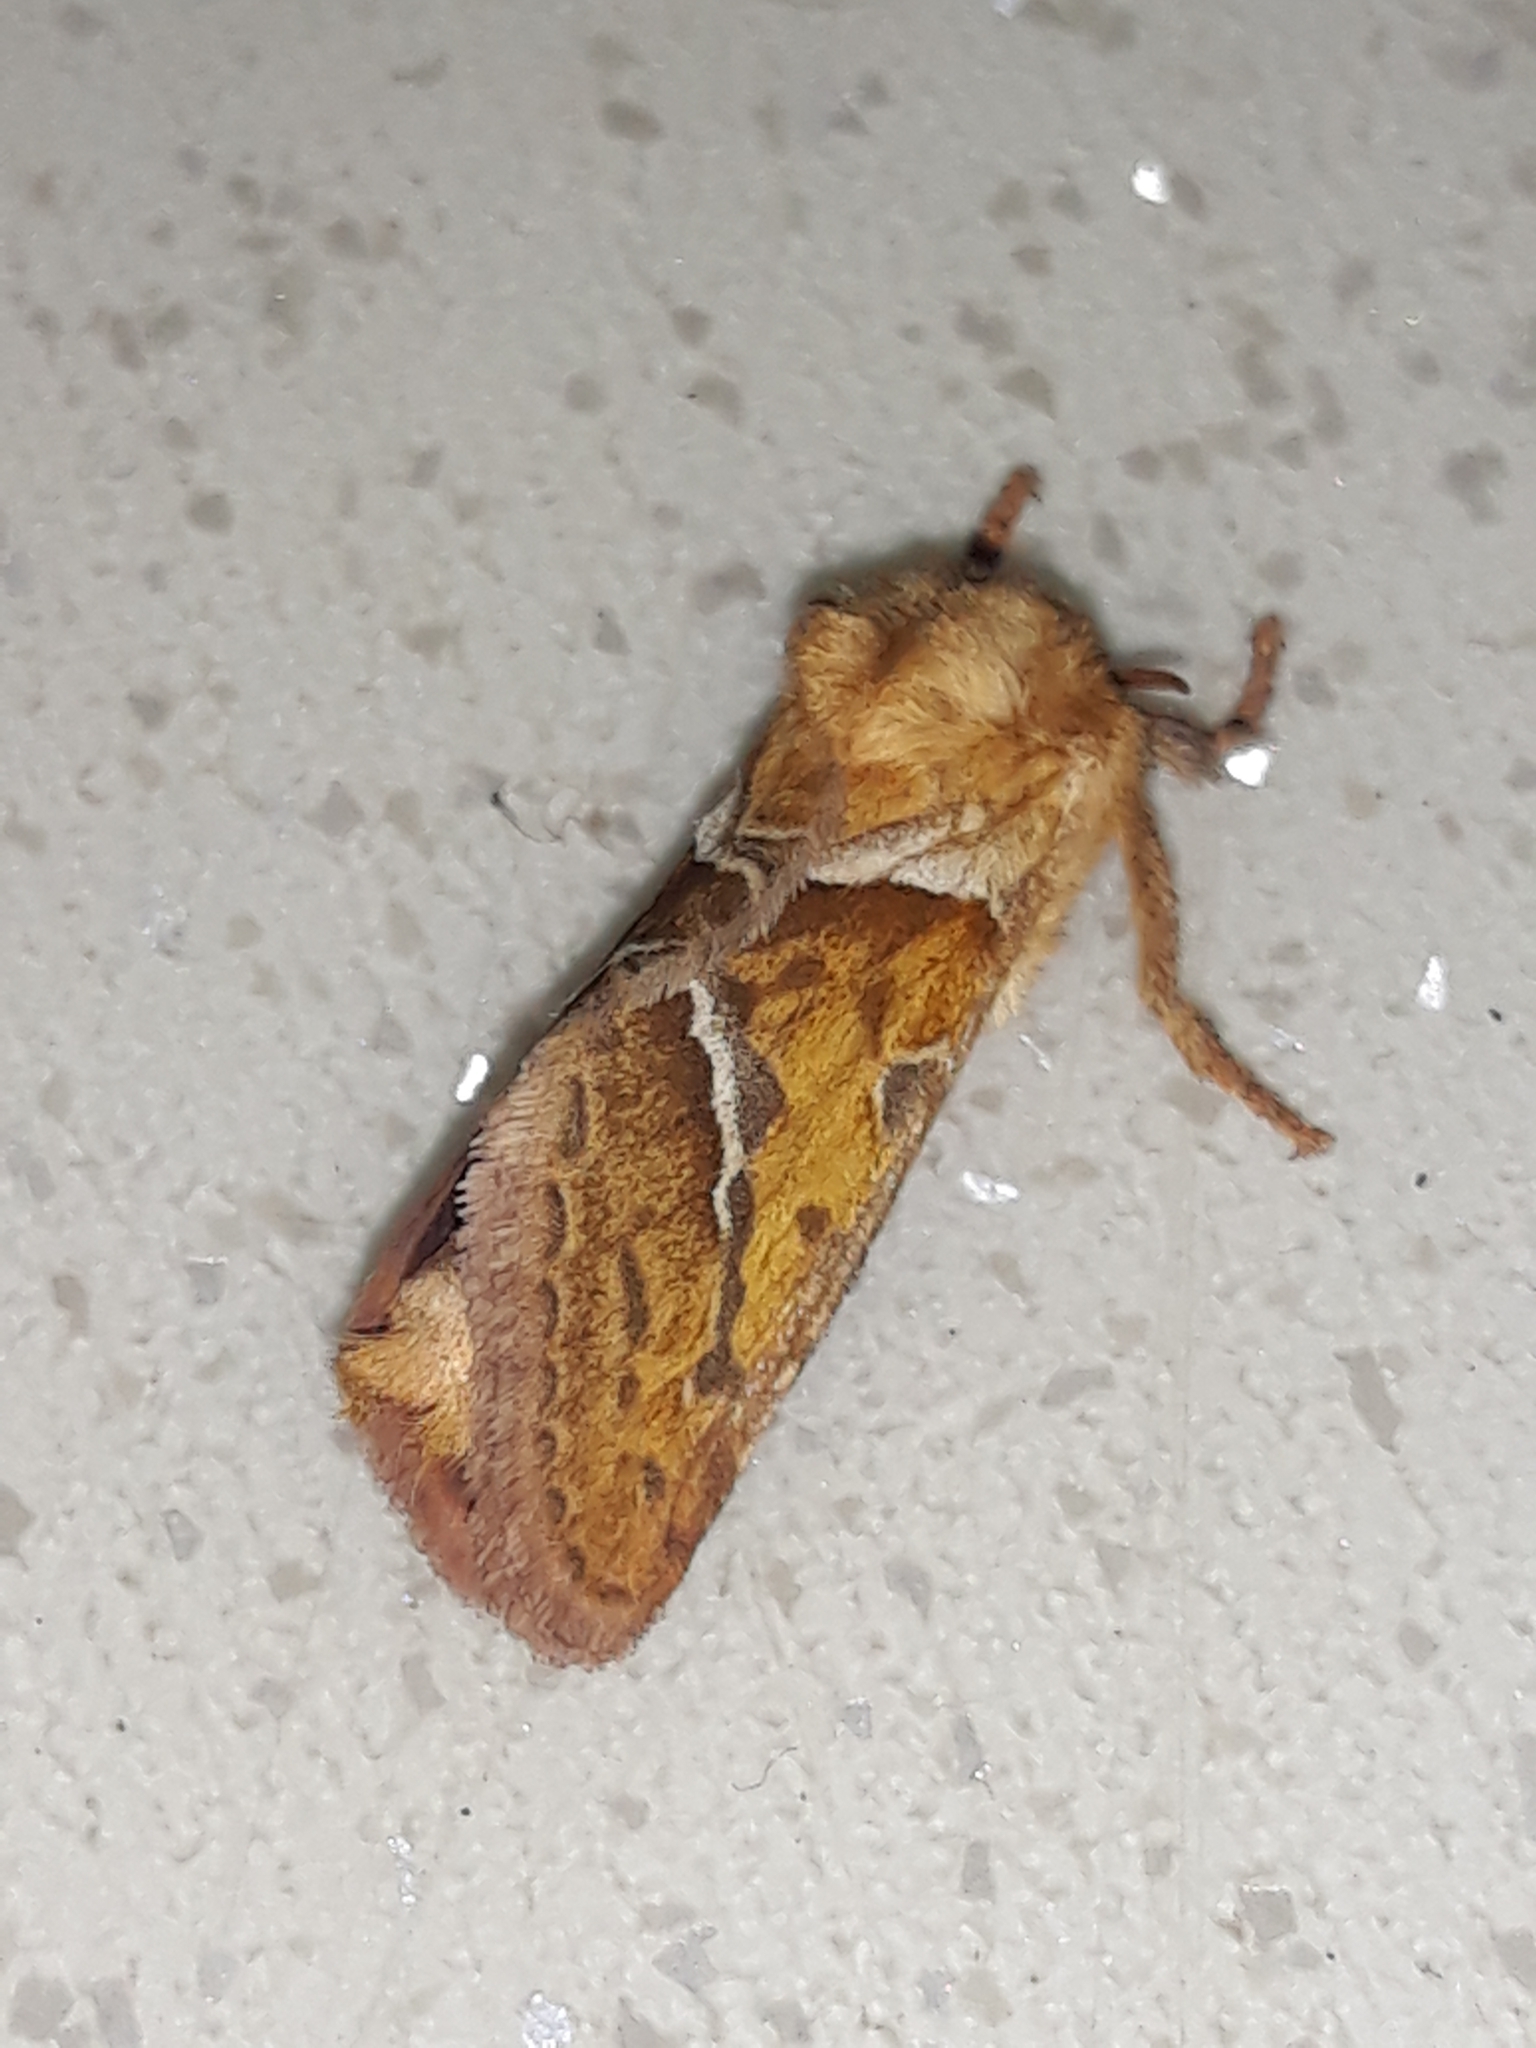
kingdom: Animalia
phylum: Arthropoda
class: Insecta
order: Lepidoptera
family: Hepialidae
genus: Triodia
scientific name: Triodia sylvina
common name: Orange swift
